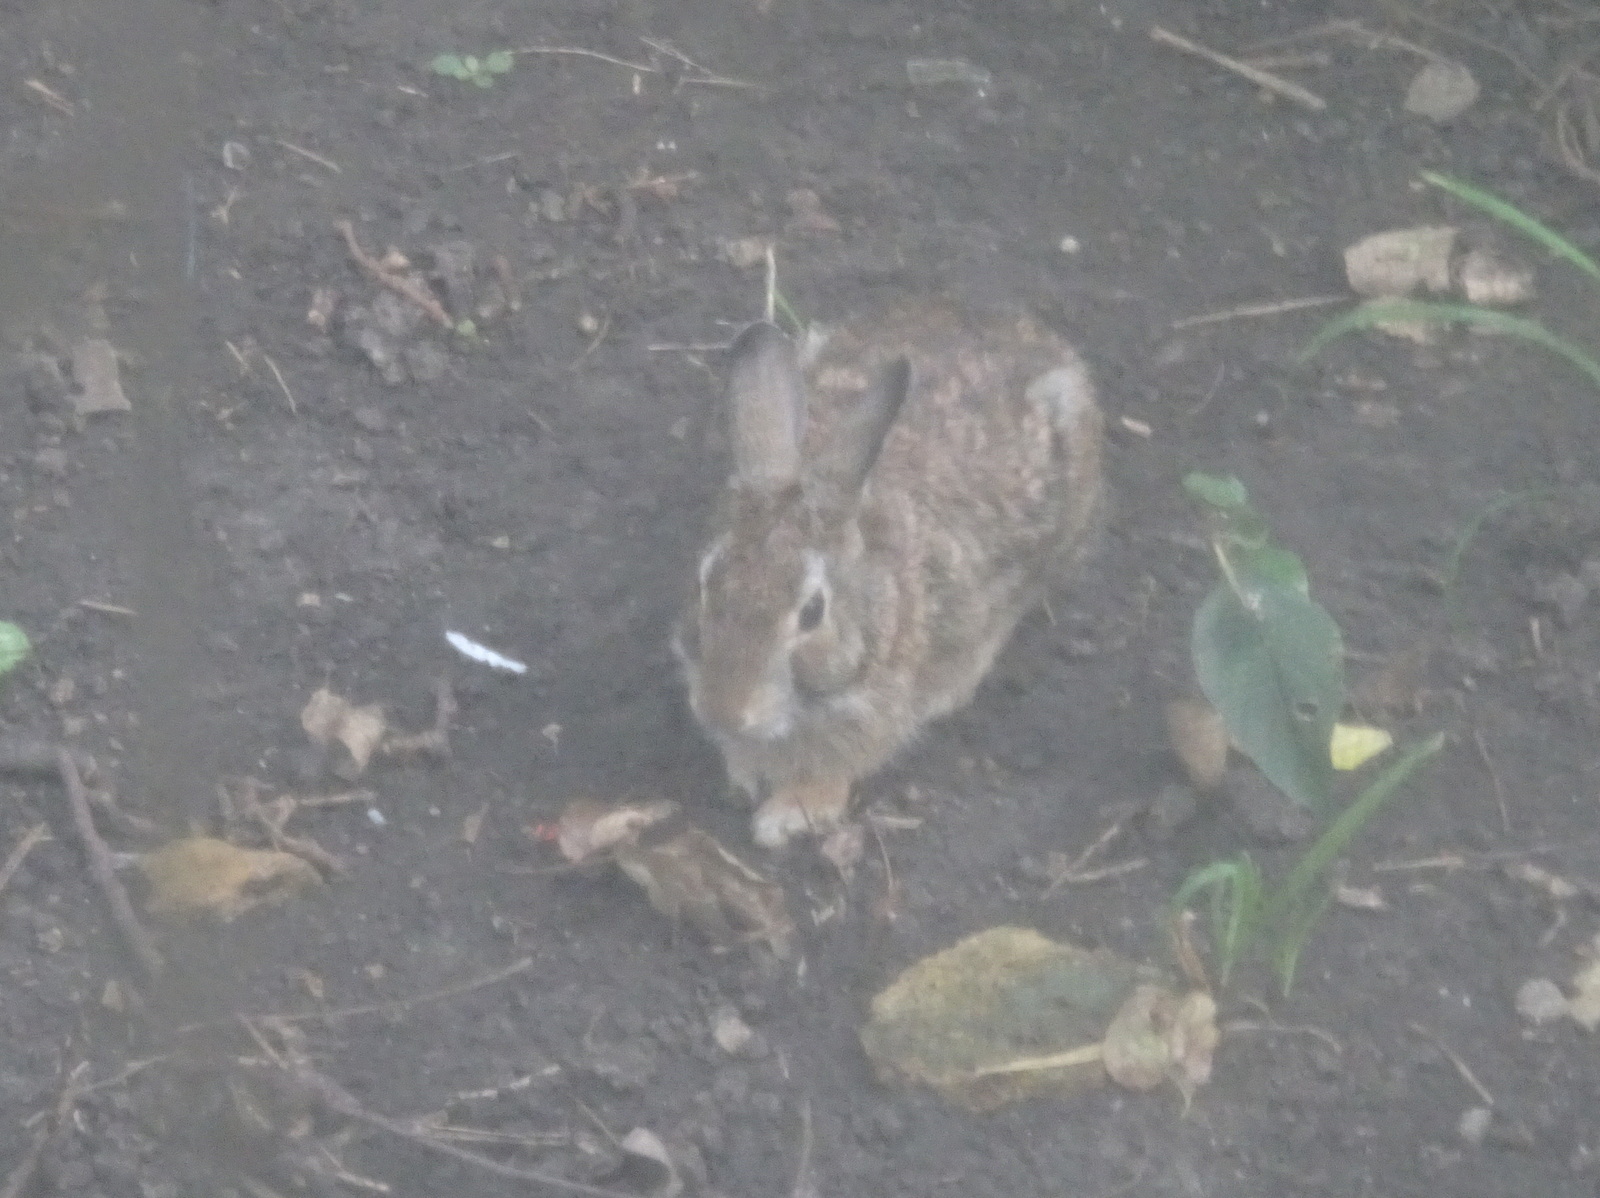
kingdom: Animalia
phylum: Chordata
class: Mammalia
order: Lagomorpha
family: Leporidae
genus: Sylvilagus
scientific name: Sylvilagus floridanus
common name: Eastern cottontail
